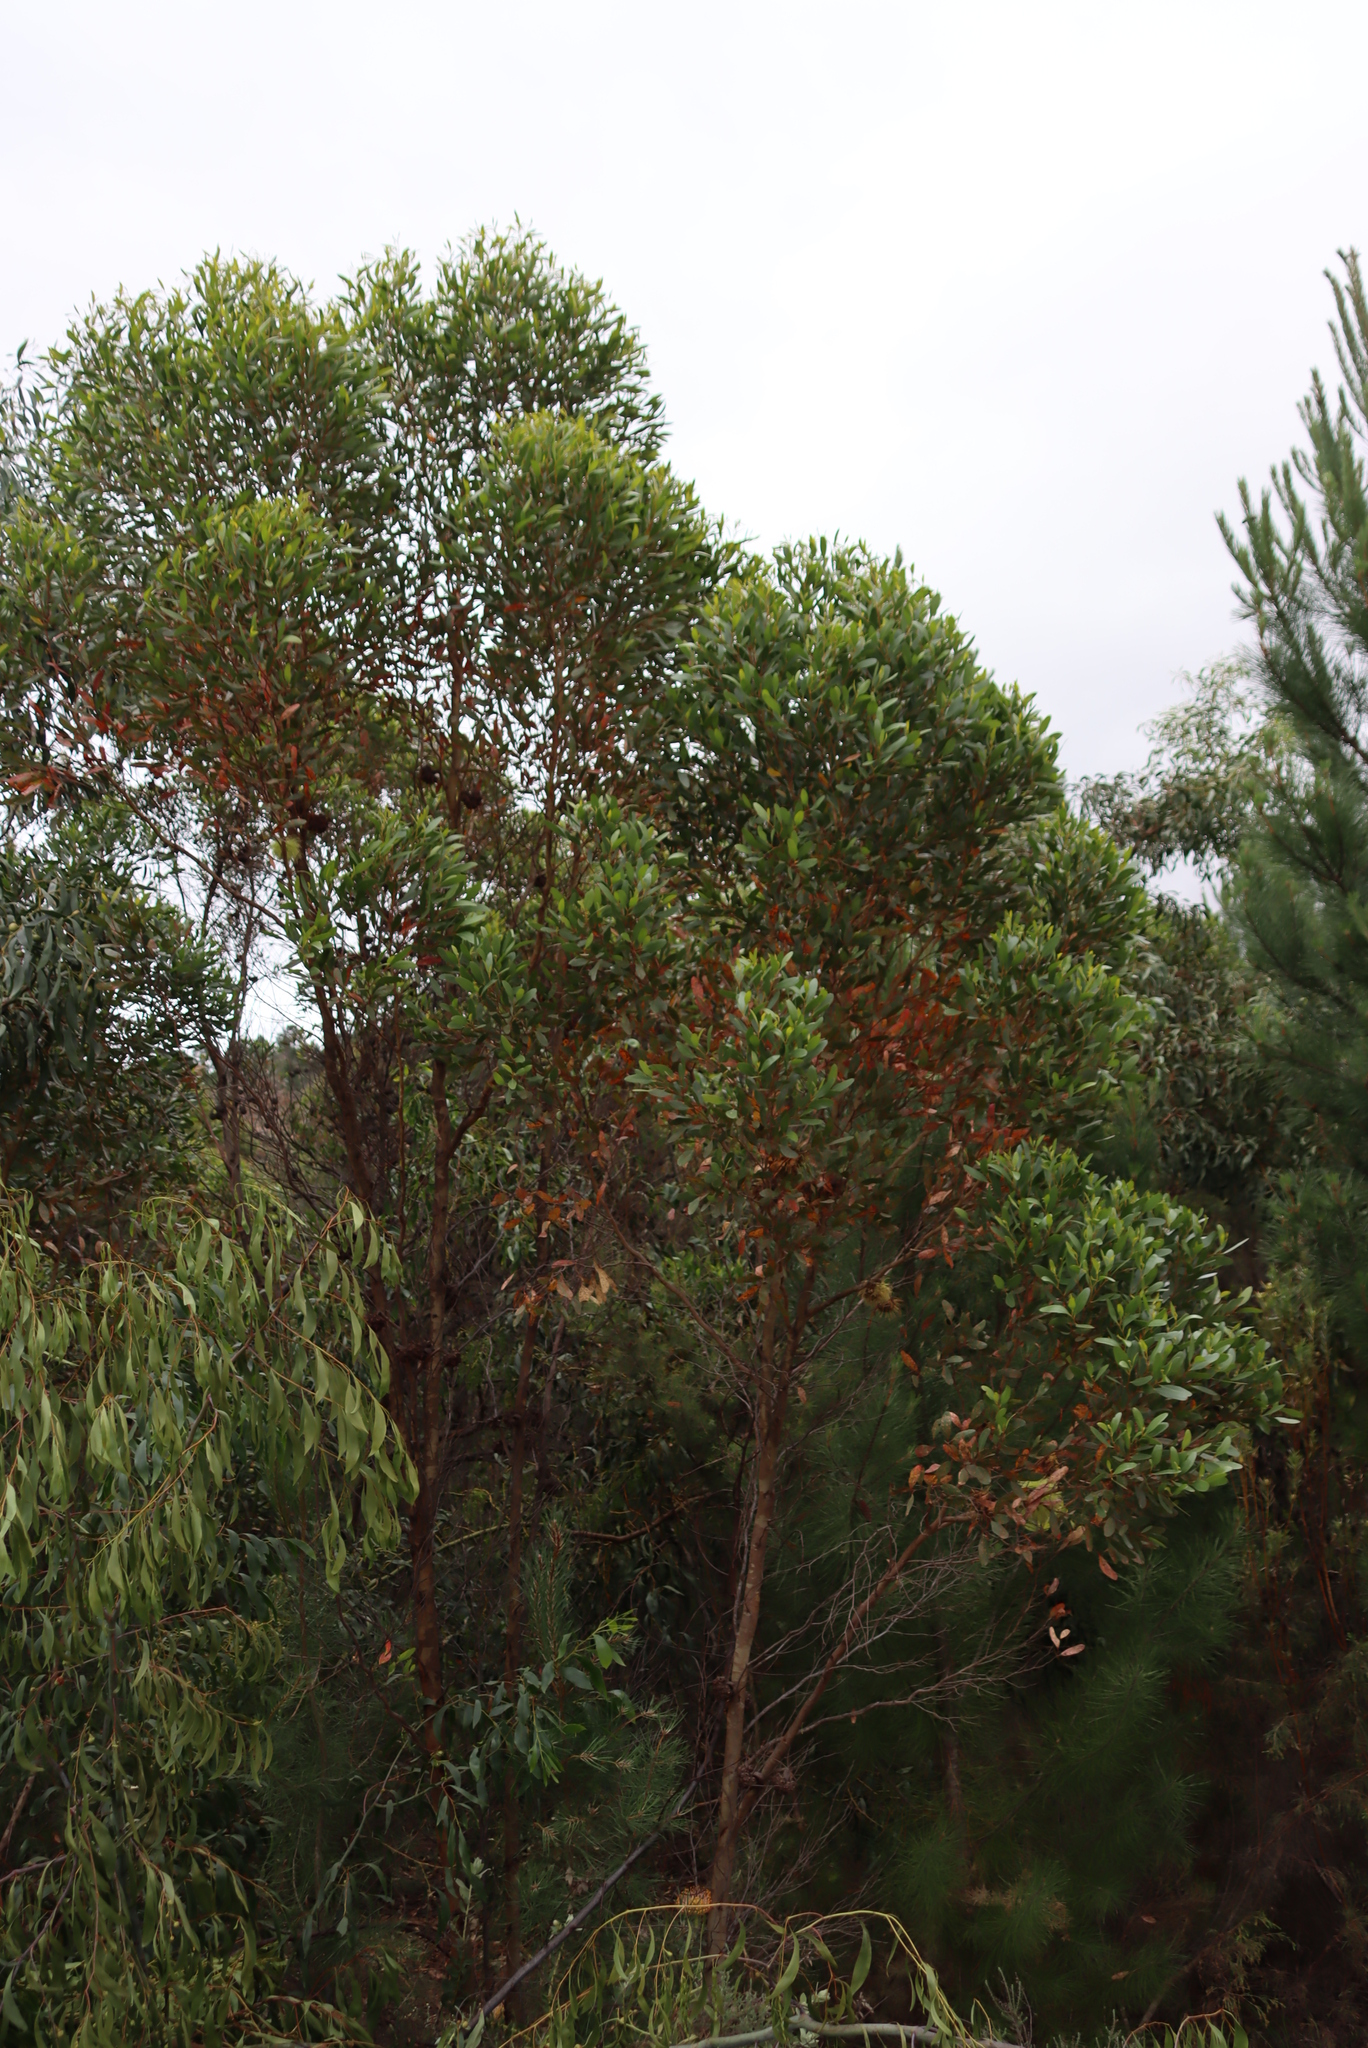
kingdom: Plantae
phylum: Tracheophyta
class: Magnoliopsida
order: Myrtales
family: Myrtaceae
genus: Eucalyptus
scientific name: Eucalyptus conferruminata
